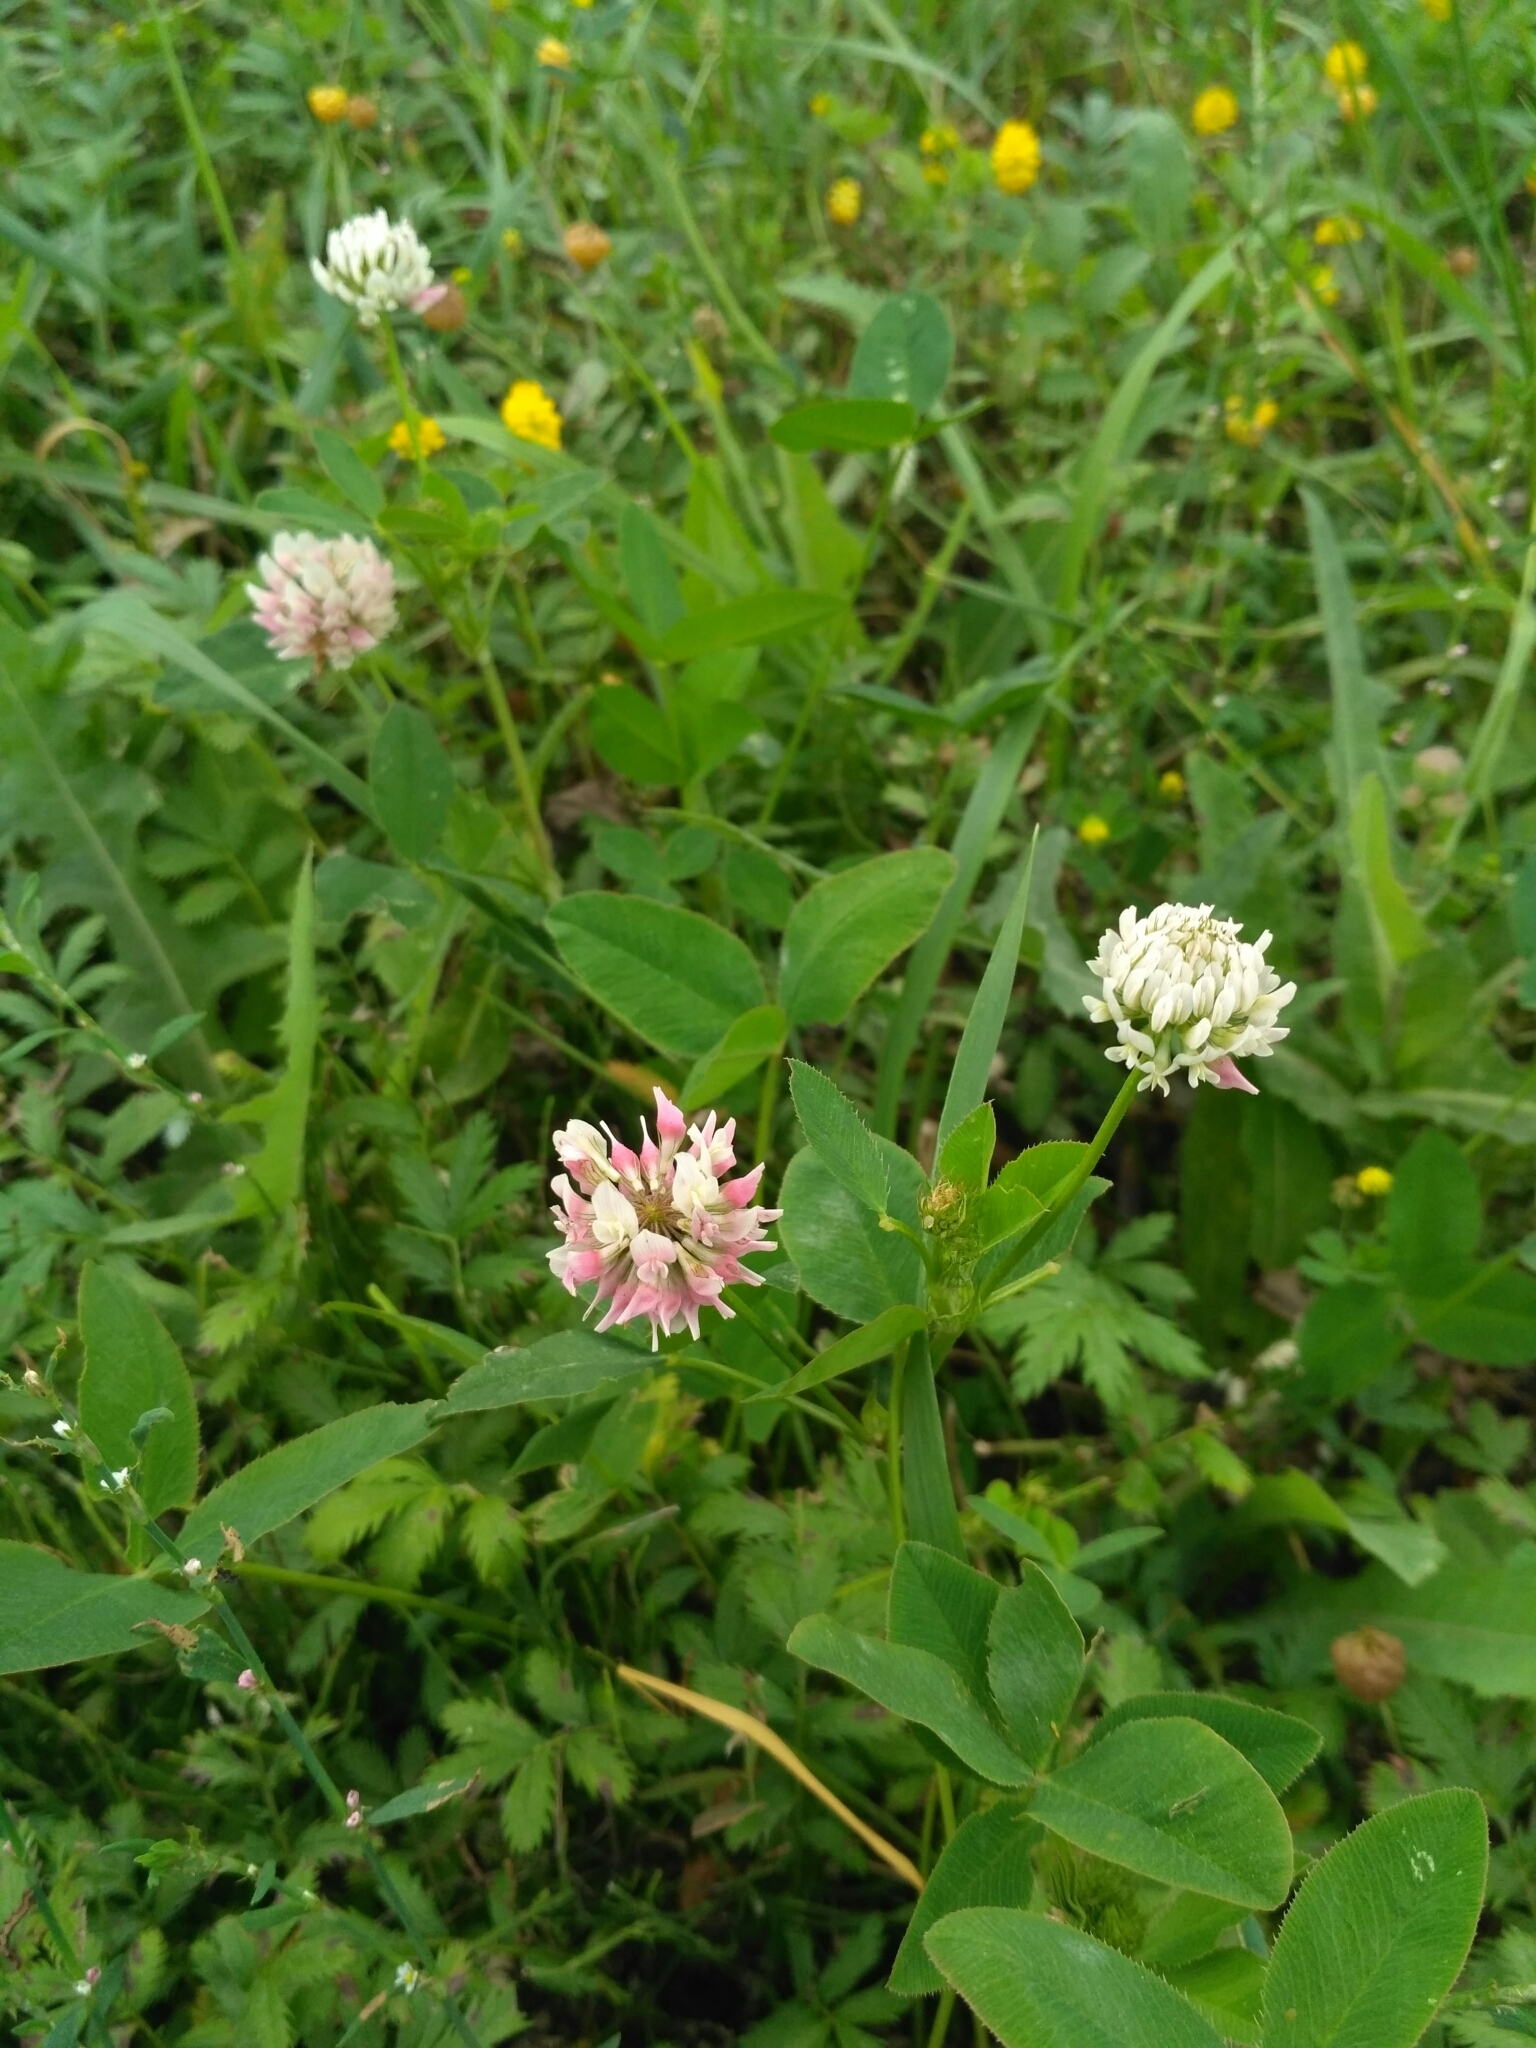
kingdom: Plantae
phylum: Tracheophyta
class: Magnoliopsida
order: Fabales
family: Fabaceae
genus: Trifolium
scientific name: Trifolium hybridum
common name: Alsike clover
